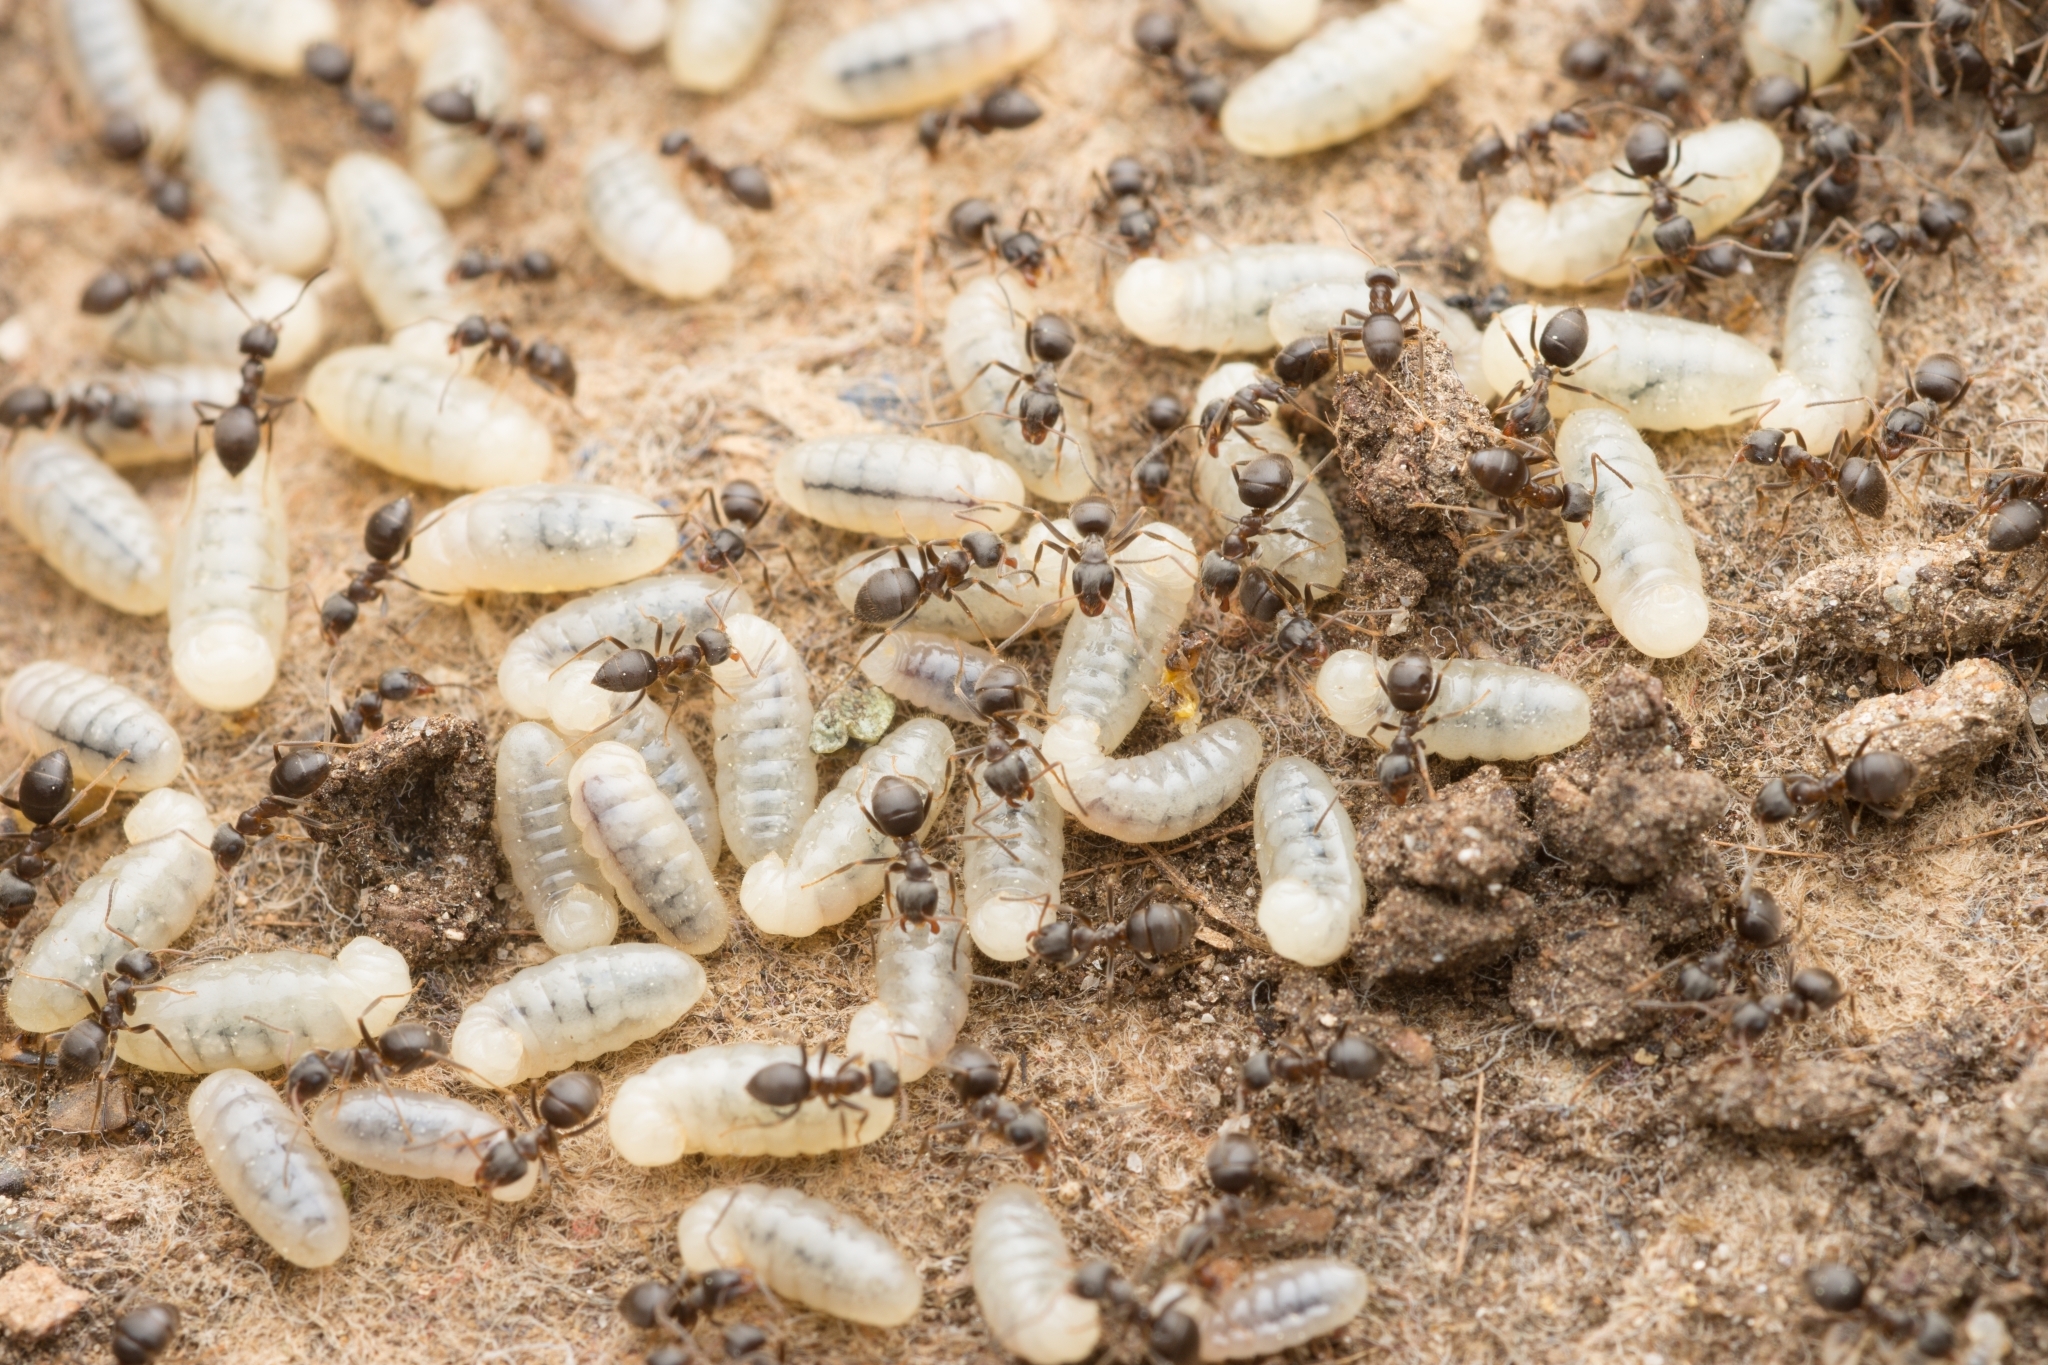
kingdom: Animalia
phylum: Arthropoda
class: Insecta
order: Hymenoptera
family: Formicidae
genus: Lasius
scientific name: Lasius japonicus
